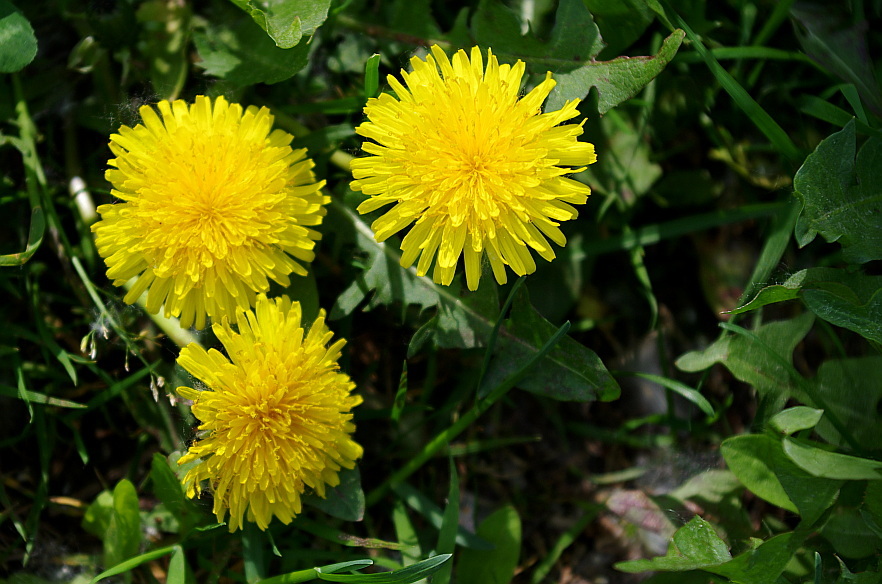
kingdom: Plantae
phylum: Tracheophyta
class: Magnoliopsida
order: Asterales
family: Asteraceae
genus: Taraxacum
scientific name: Taraxacum officinale
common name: Common dandelion
